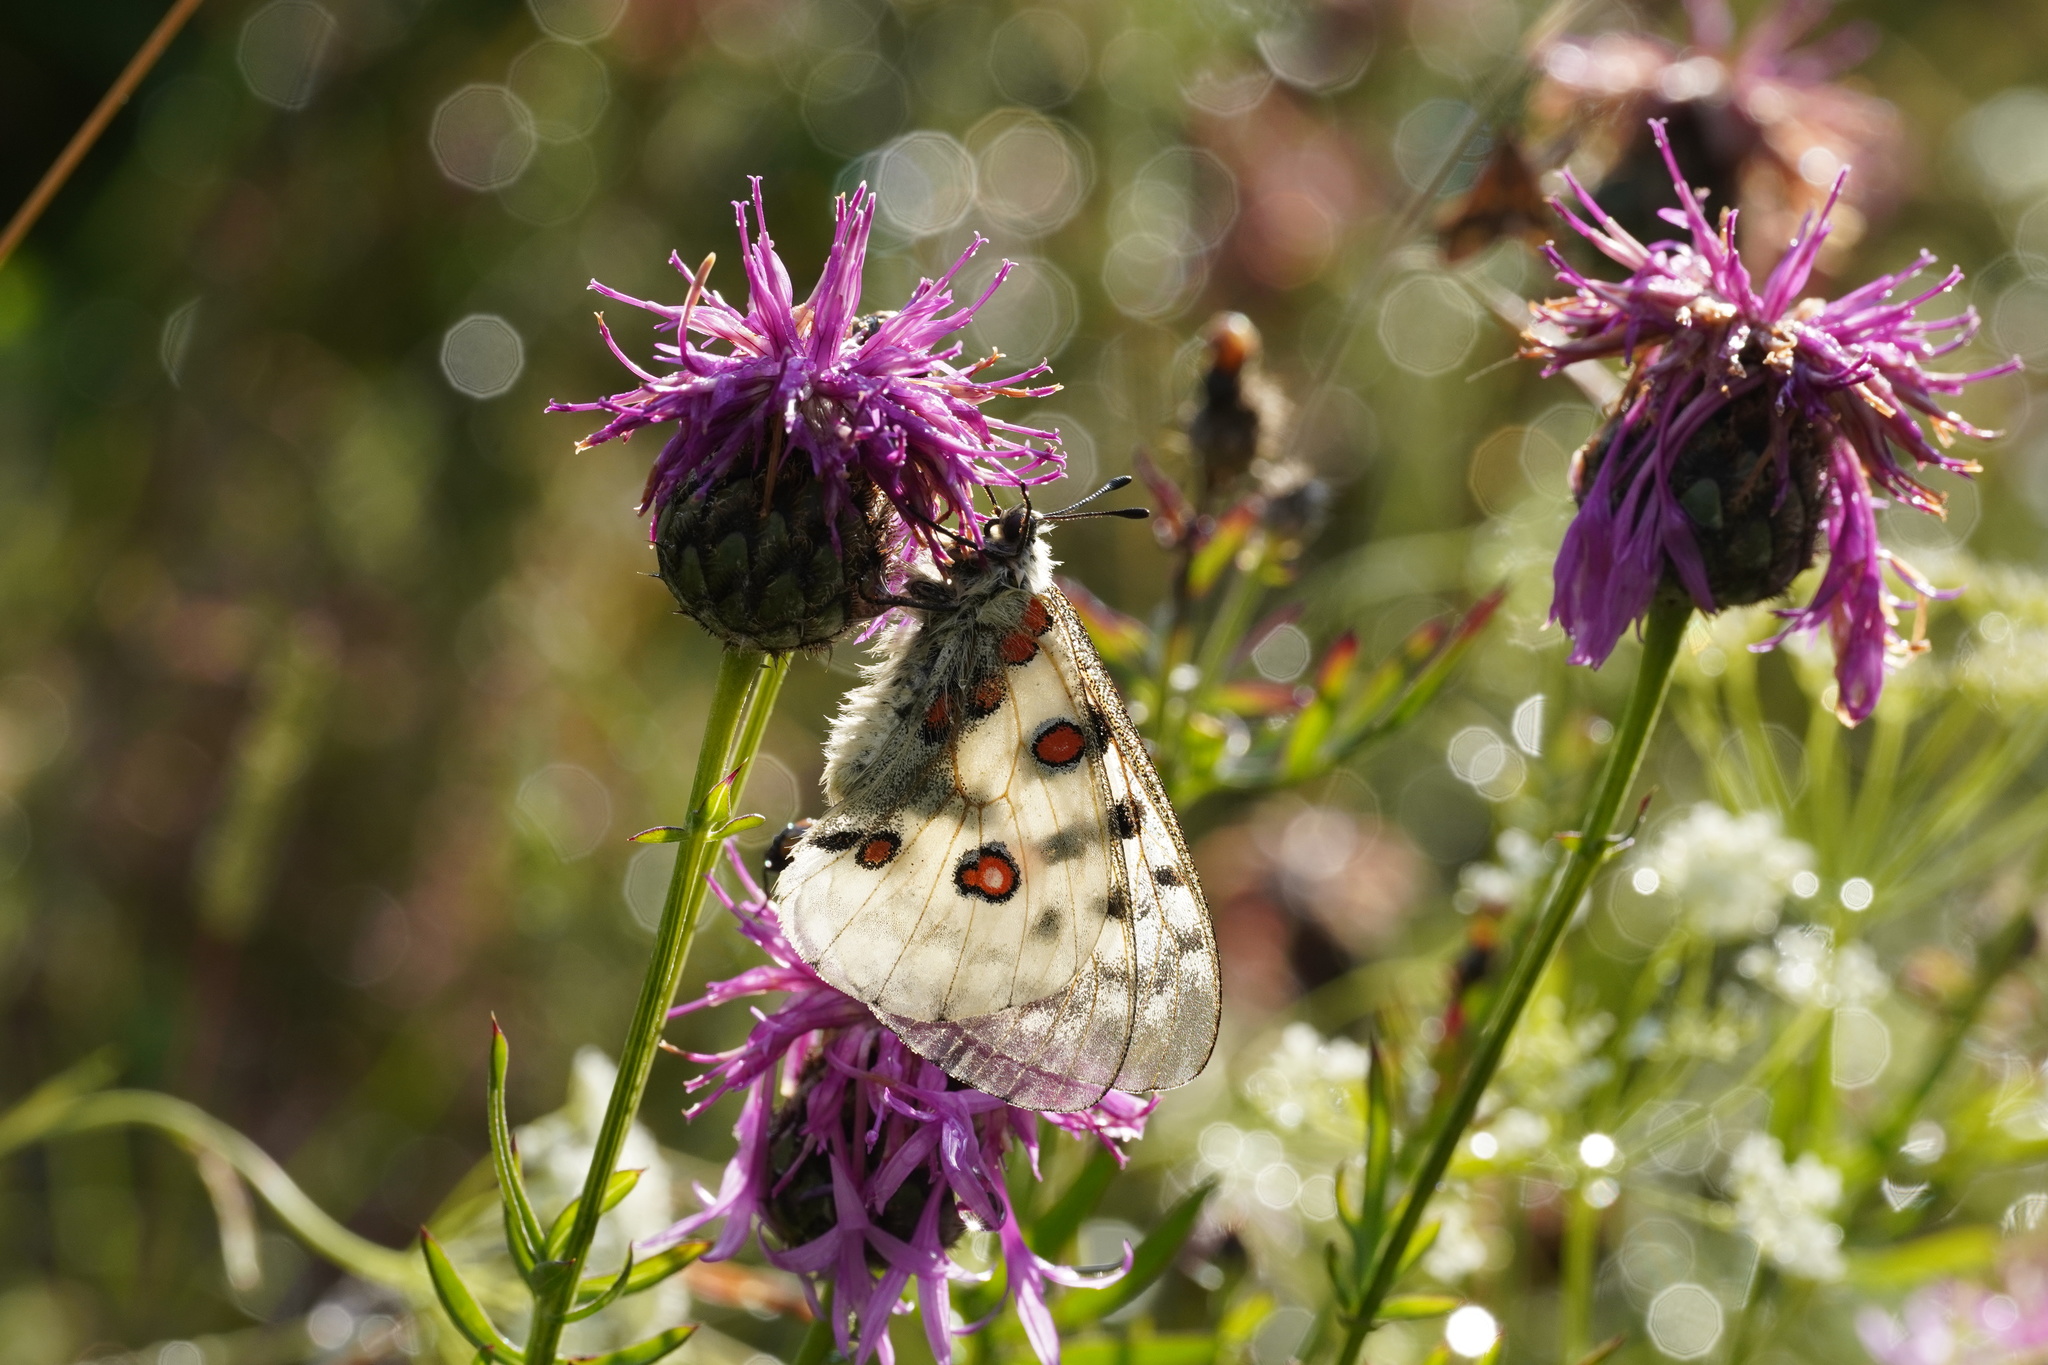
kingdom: Animalia
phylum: Arthropoda
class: Insecta
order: Lepidoptera
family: Papilionidae
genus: Parnassius
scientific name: Parnassius apollo
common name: Apollo
